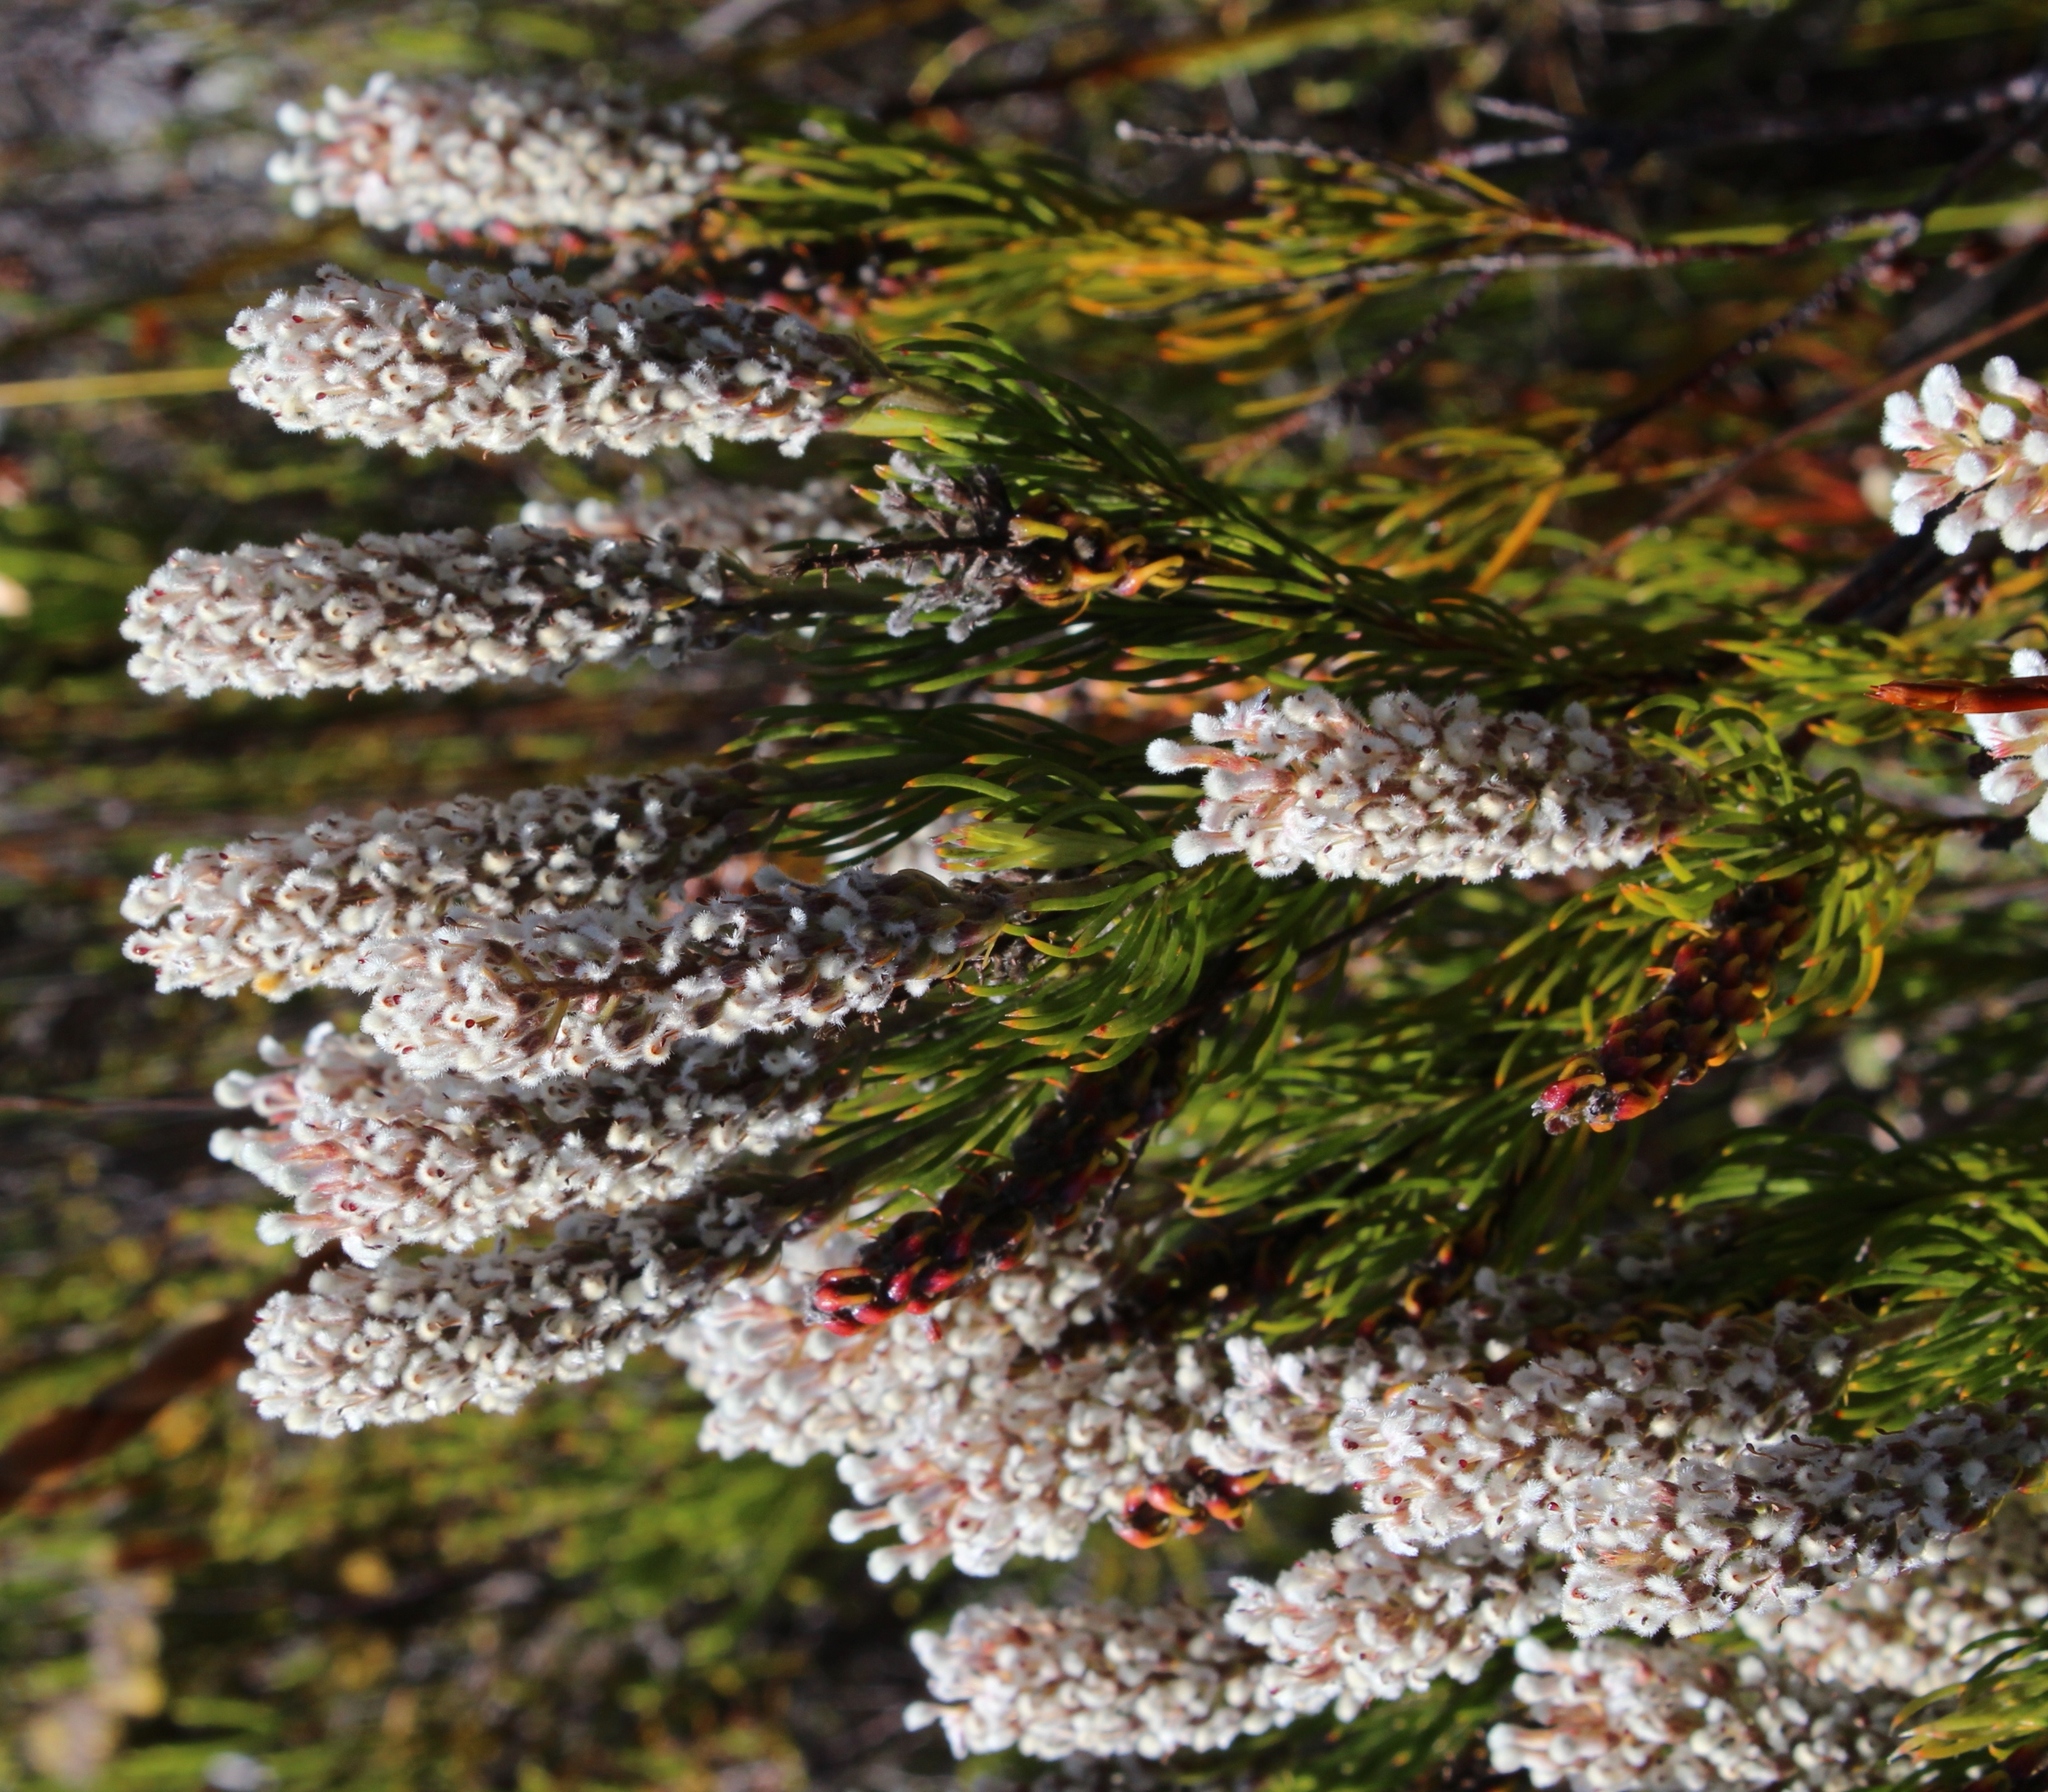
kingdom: Plantae
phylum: Tracheophyta
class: Magnoliopsida
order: Proteales
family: Proteaceae
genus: Spatalla
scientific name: Spatalla curvifolia
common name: White-stalked spoon
